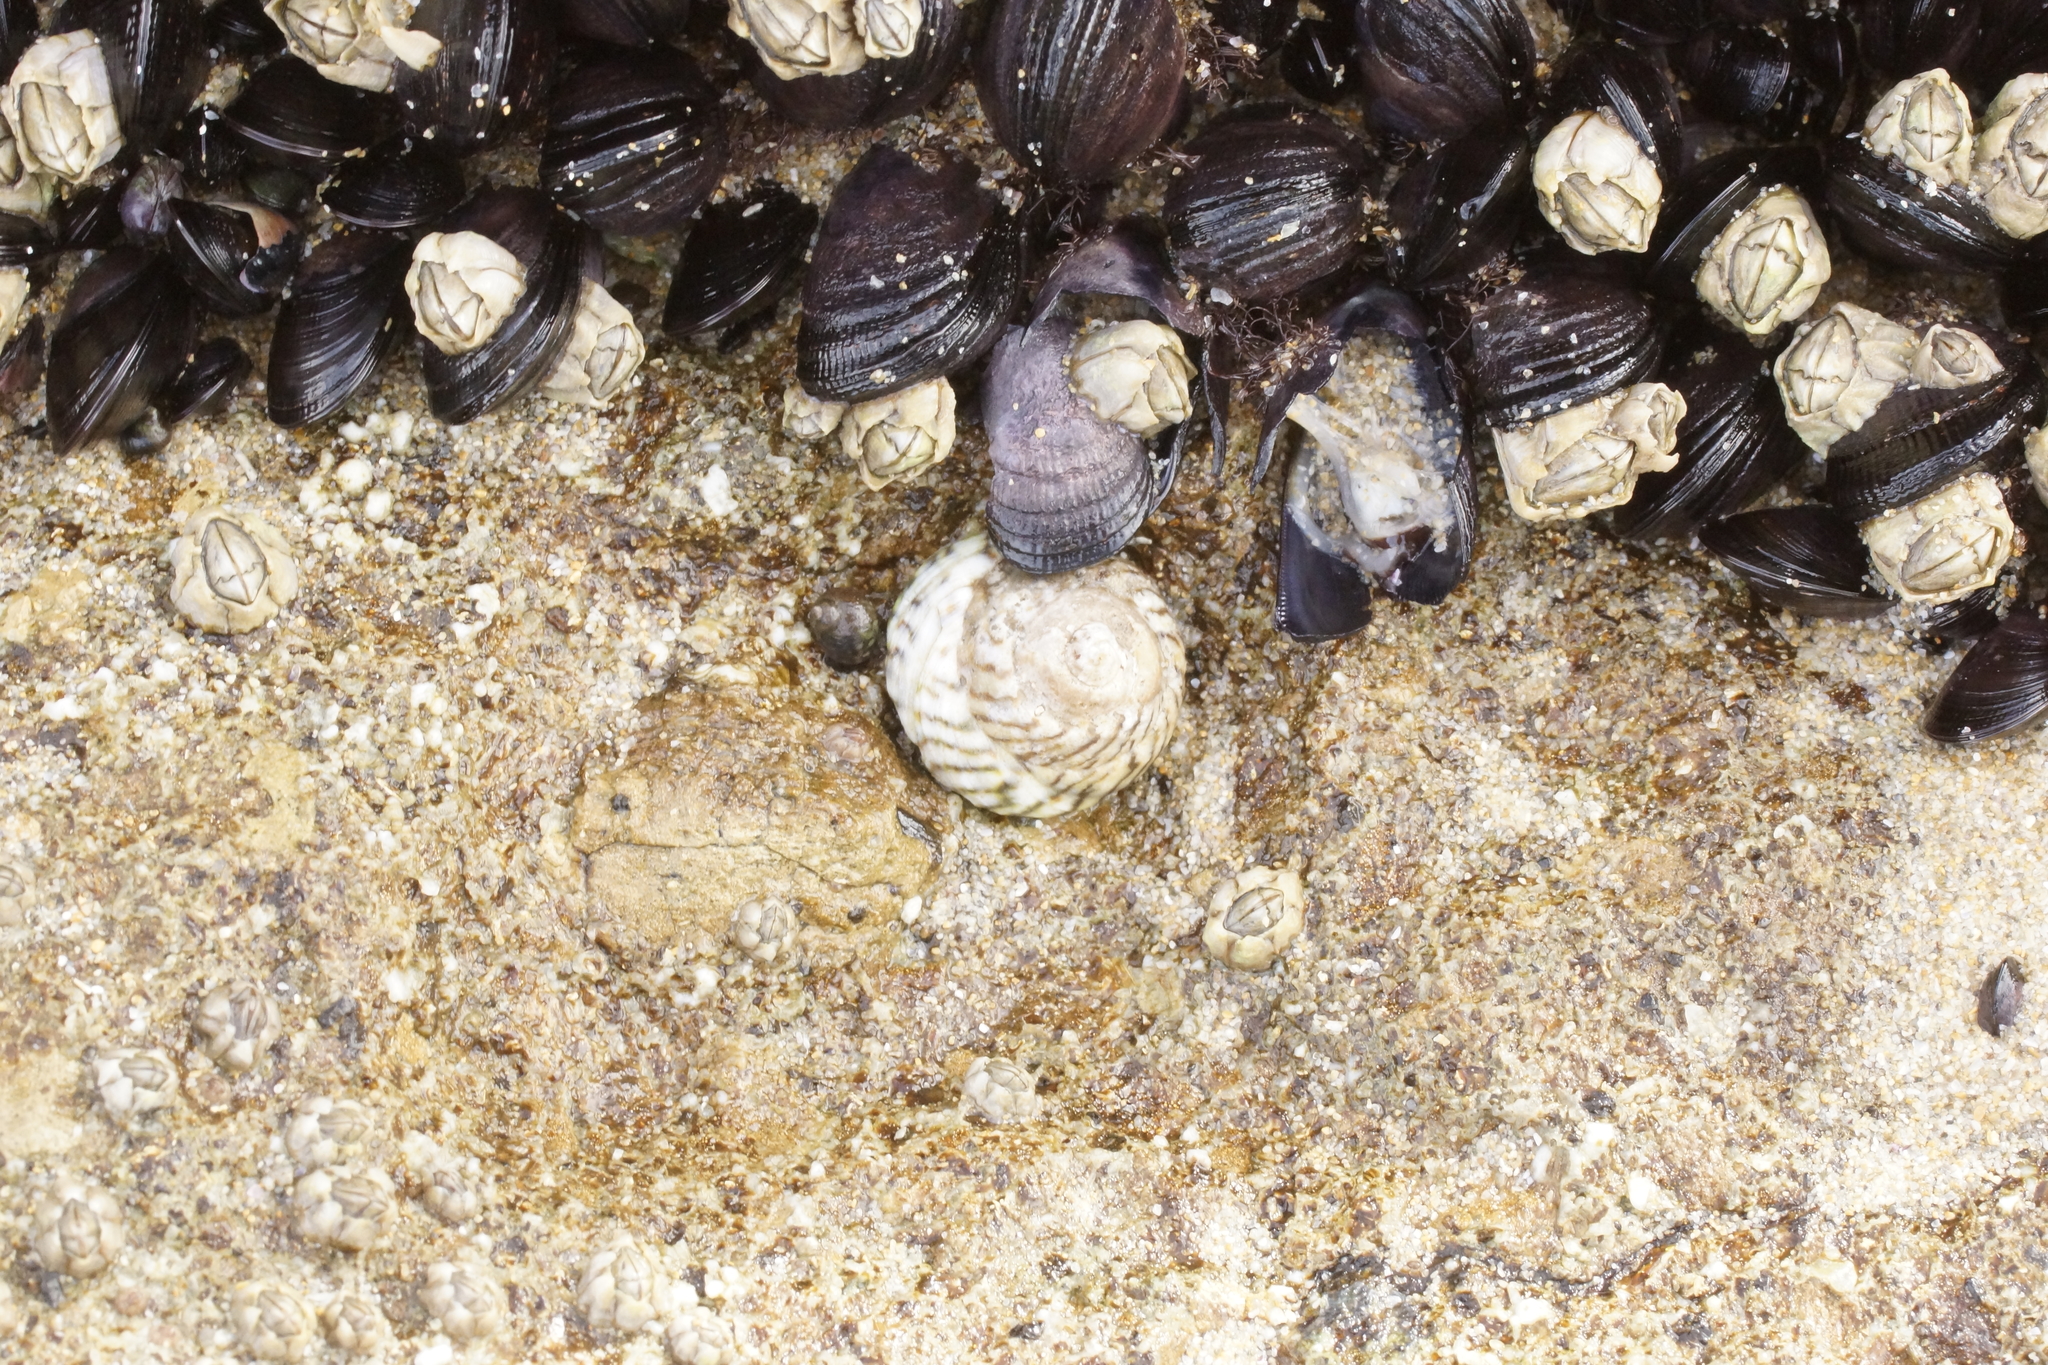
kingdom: Animalia
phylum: Mollusca
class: Gastropoda
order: Littorinimorpha
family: Littorinidae
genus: Bembicium
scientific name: Bembicium nanum
